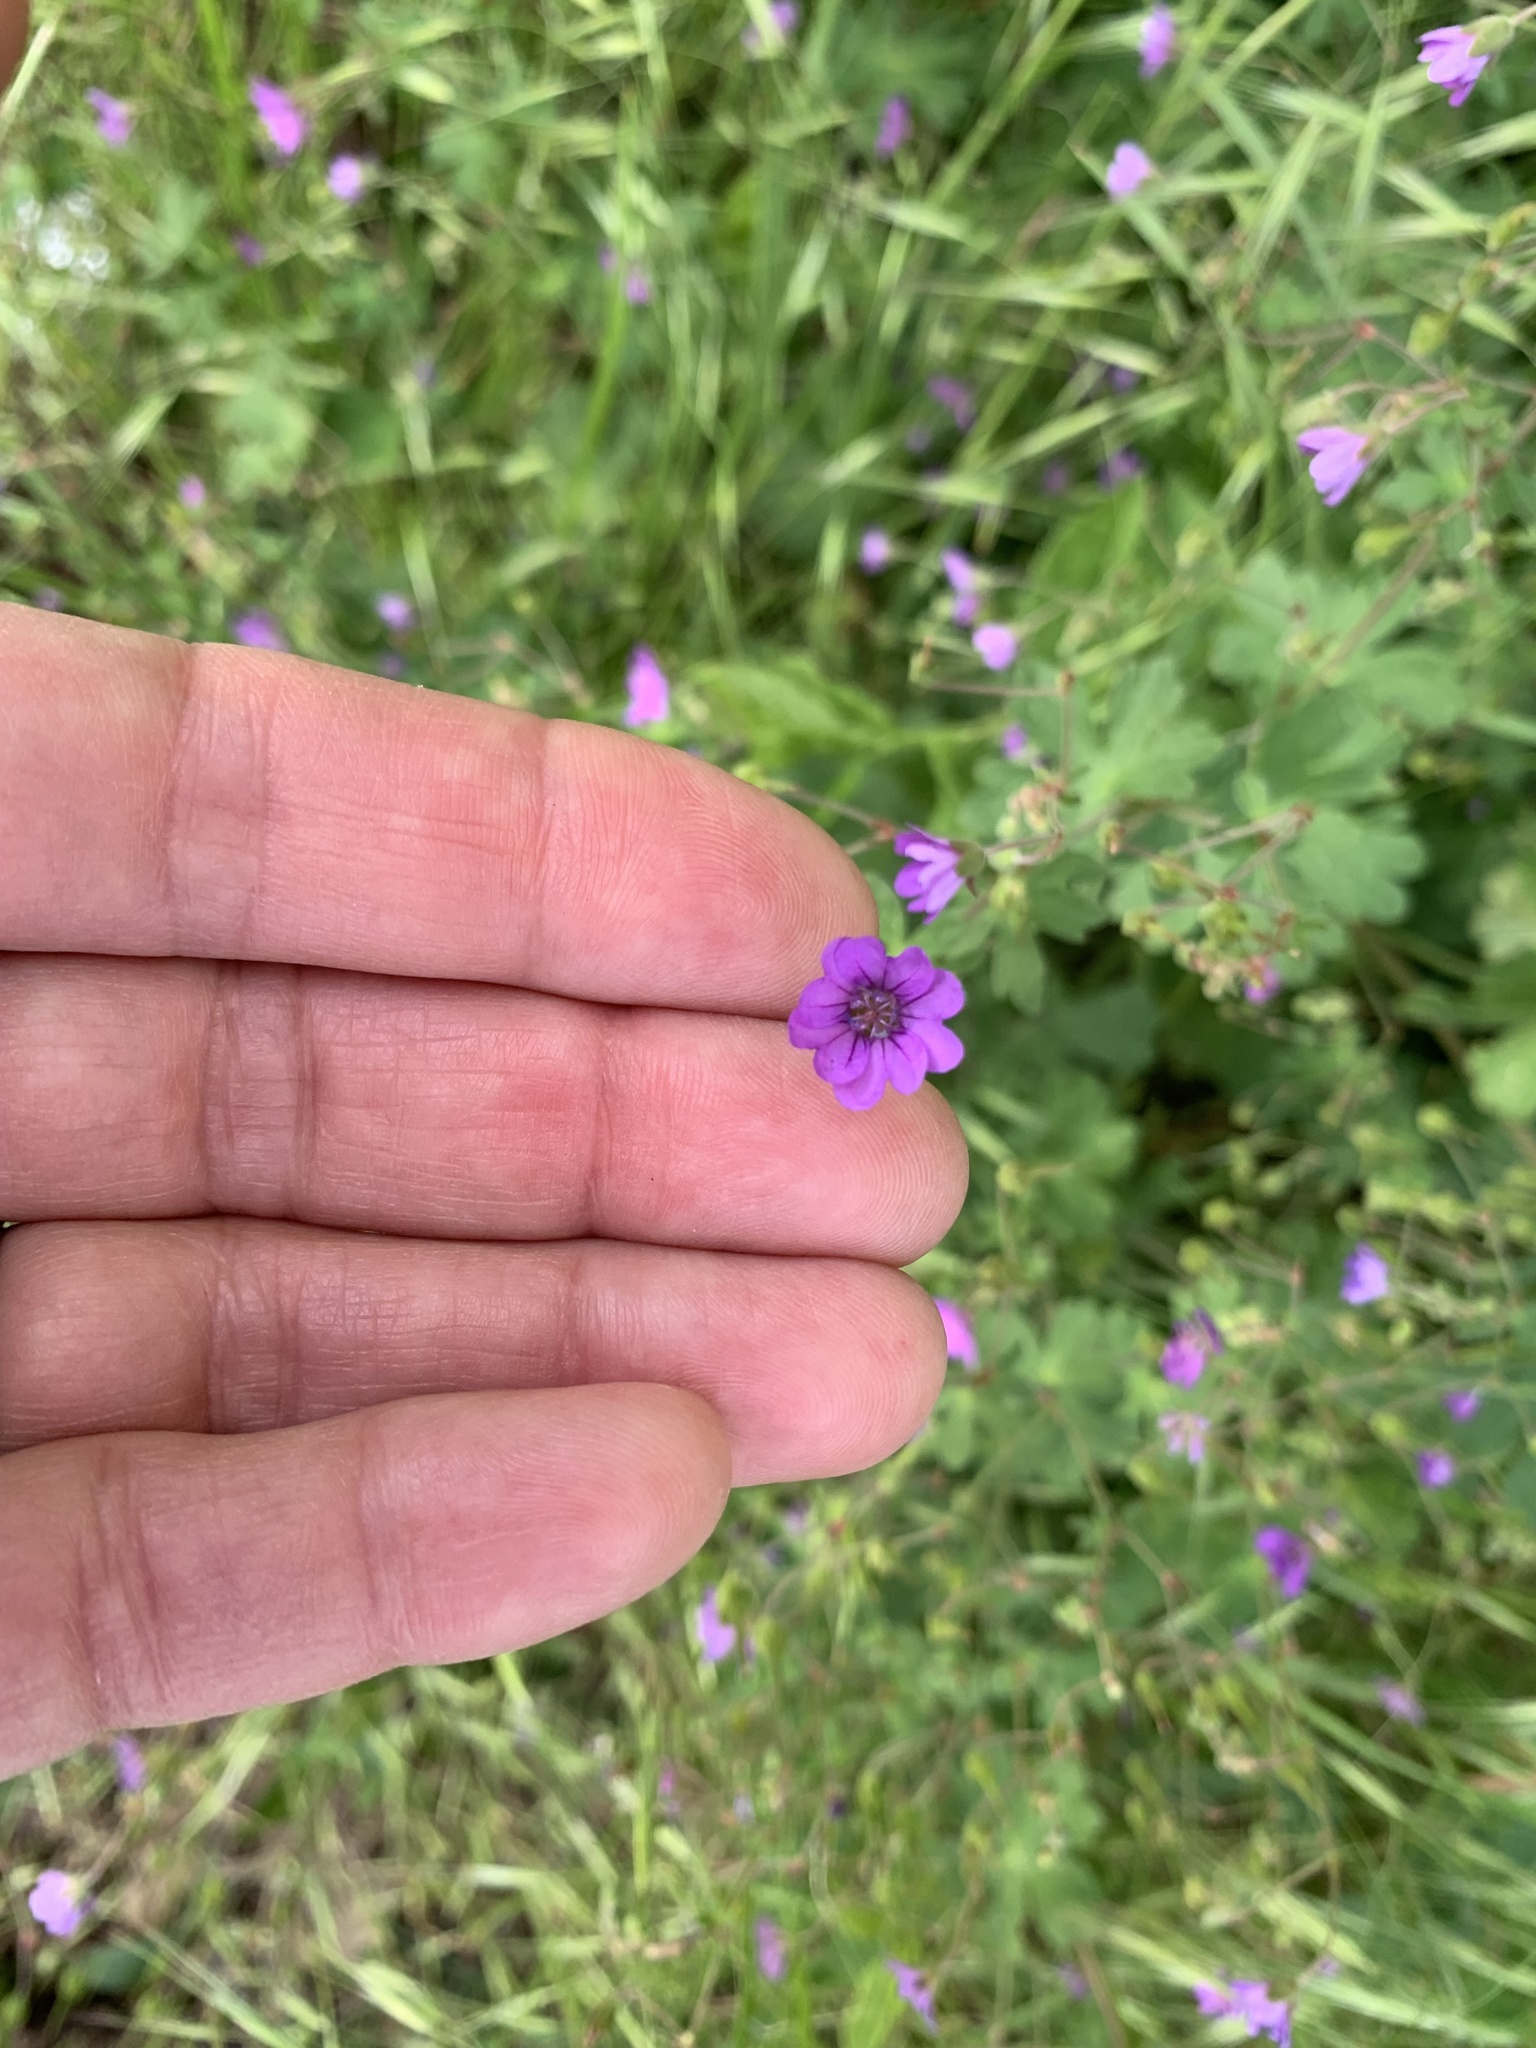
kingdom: Plantae
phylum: Tracheophyta
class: Magnoliopsida
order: Geraniales
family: Geraniaceae
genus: Geranium
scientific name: Geranium pyrenaicum
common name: Hedgerow crane's-bill
